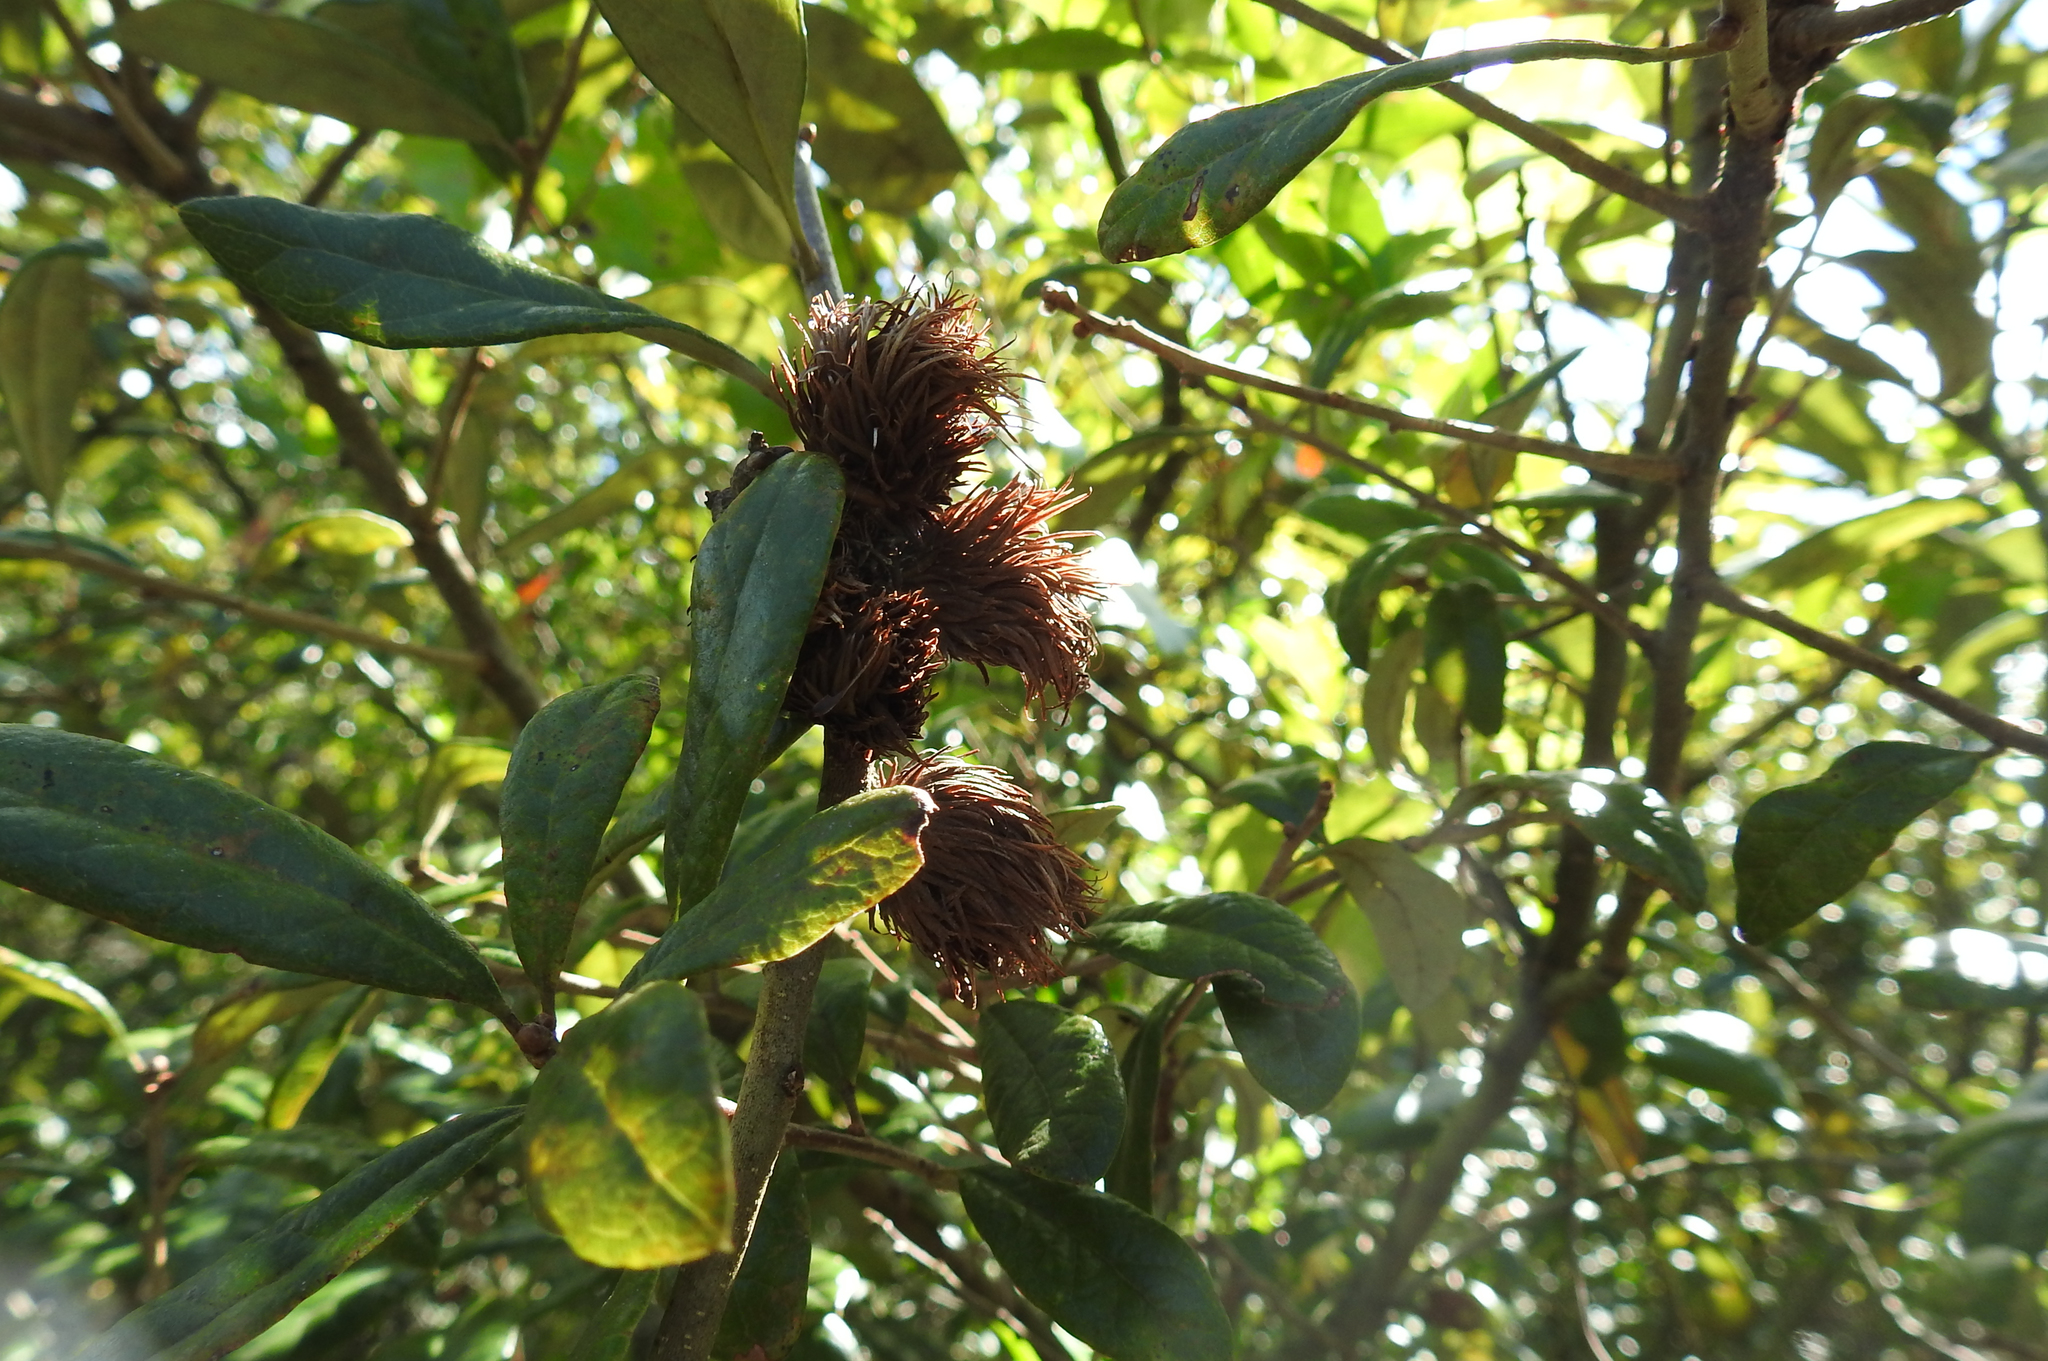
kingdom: Plantae
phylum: Tracheophyta
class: Magnoliopsida
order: Fagales
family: Fagaceae
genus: Quercus
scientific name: Quercus geminata
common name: Sand live oak
